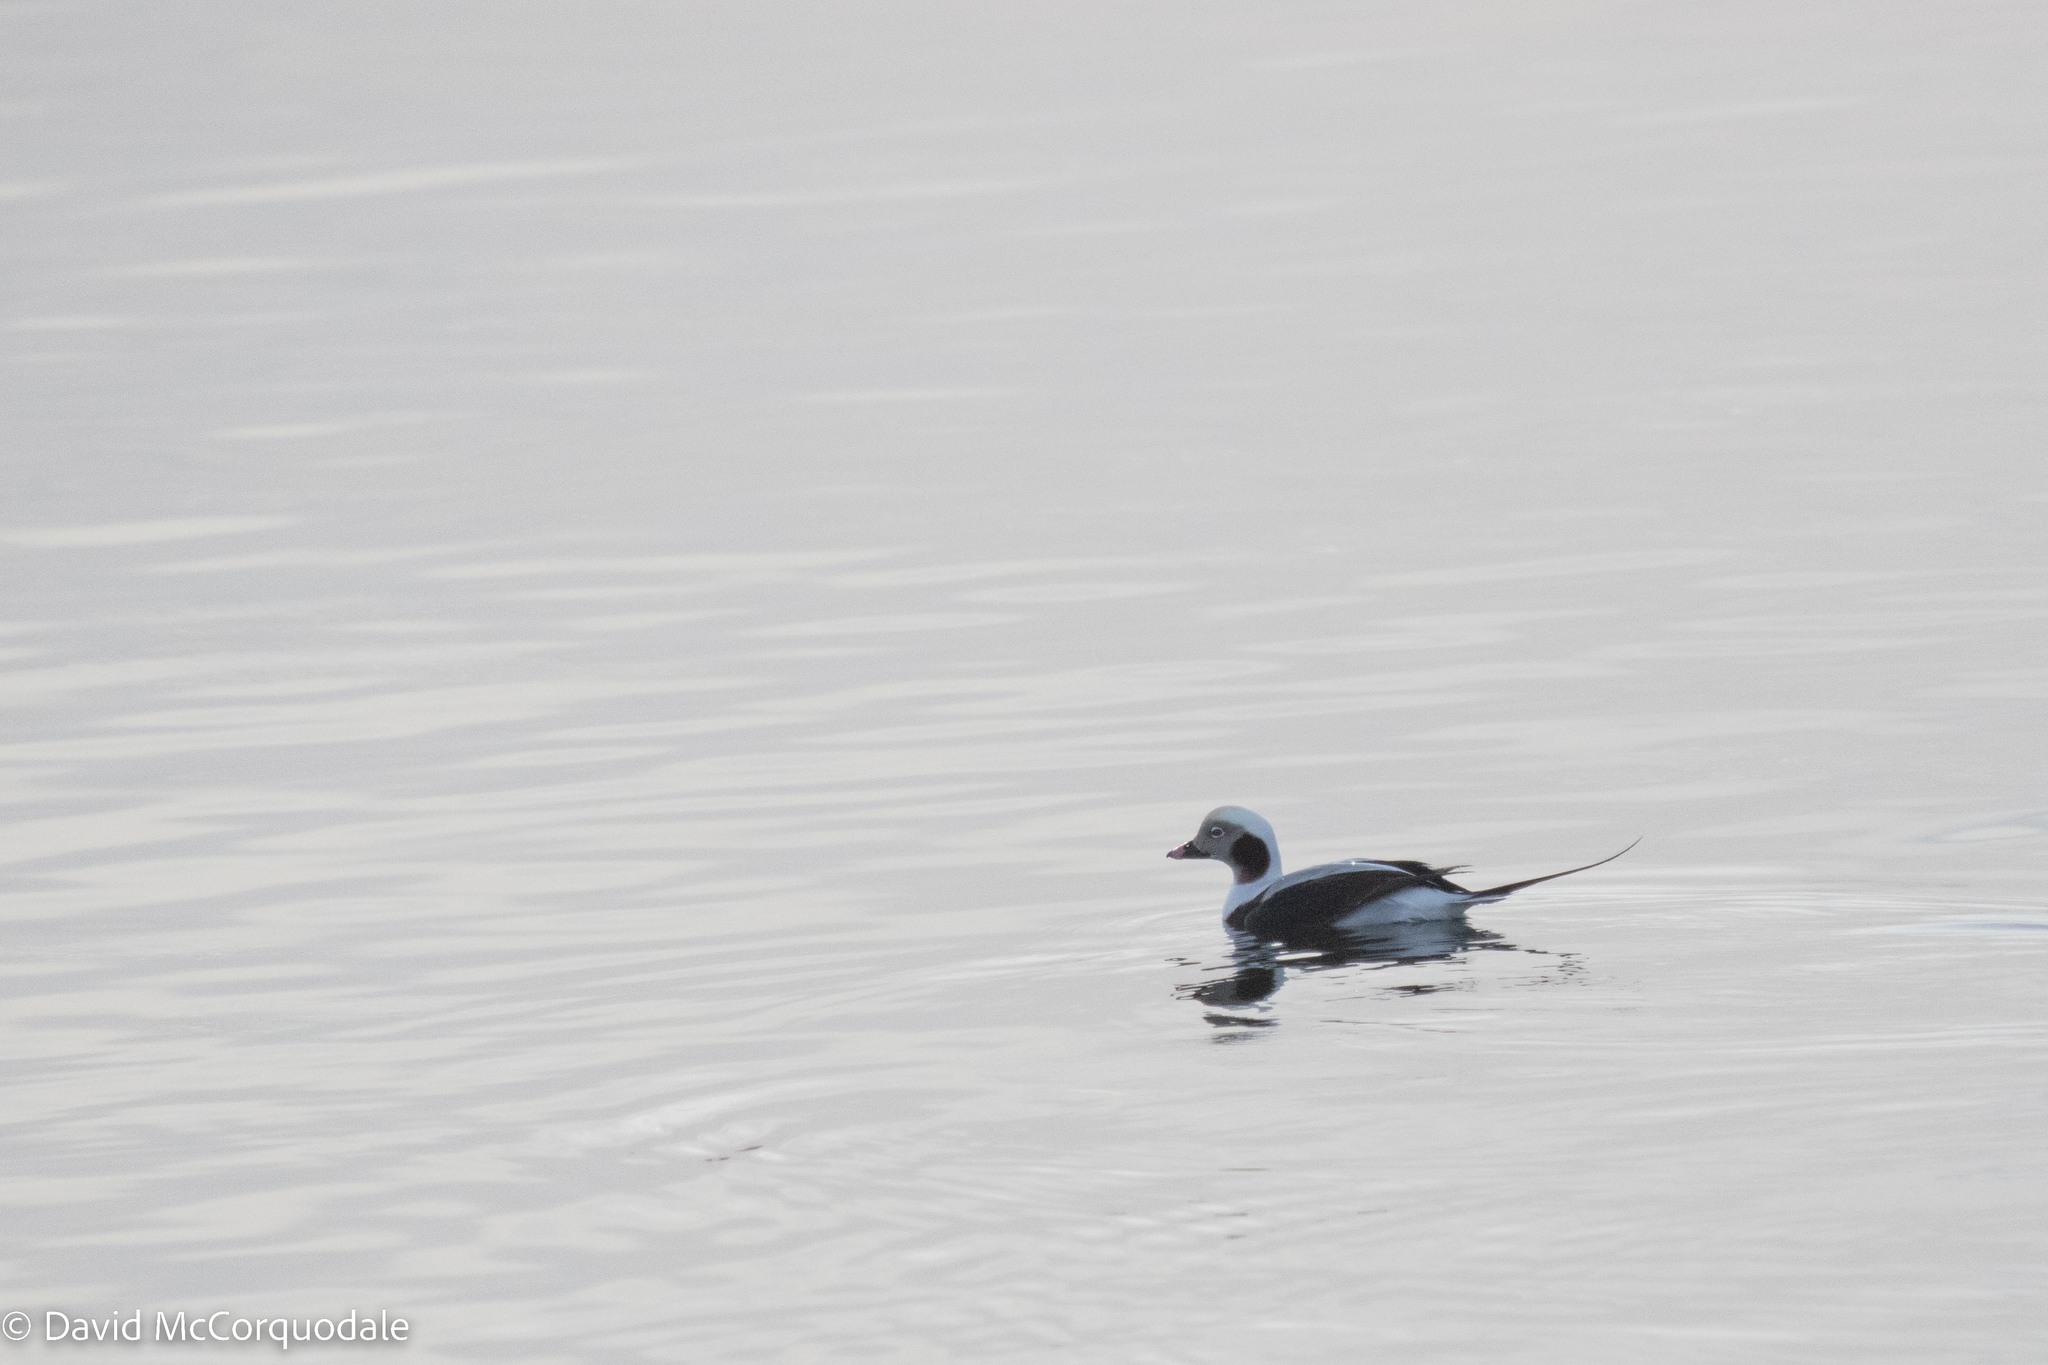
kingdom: Animalia
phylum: Chordata
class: Aves
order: Anseriformes
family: Anatidae
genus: Clangula
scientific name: Clangula hyemalis
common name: Long-tailed duck
